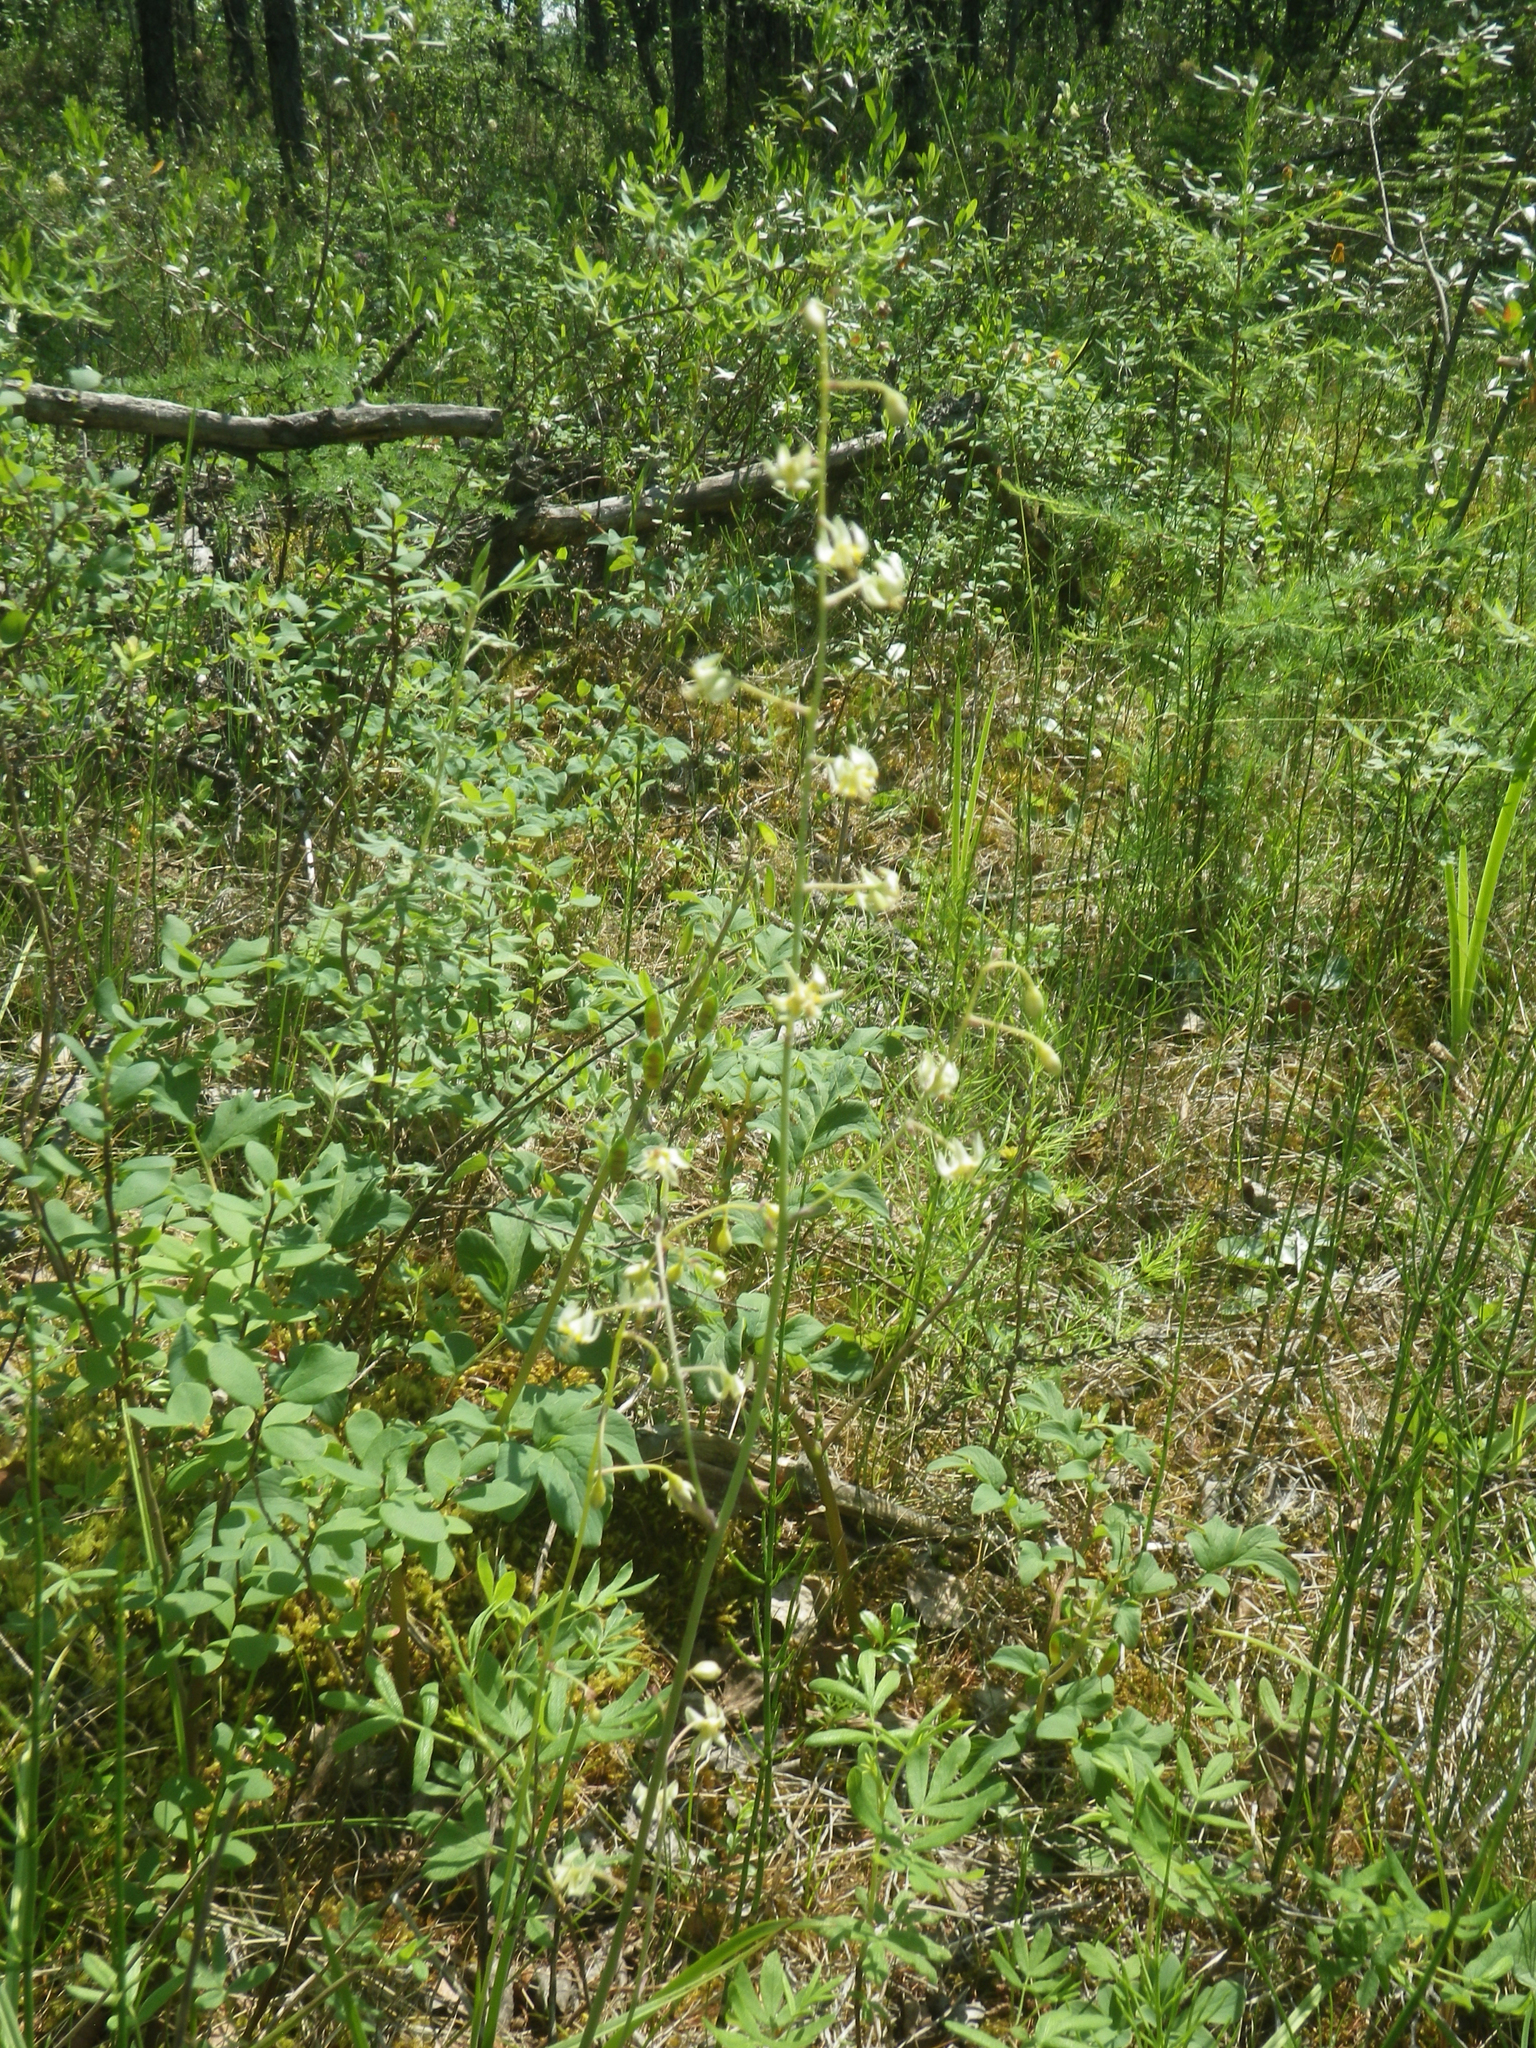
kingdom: Plantae
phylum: Tracheophyta
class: Liliopsida
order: Liliales
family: Melanthiaceae
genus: Anticlea
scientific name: Anticlea sibirica
